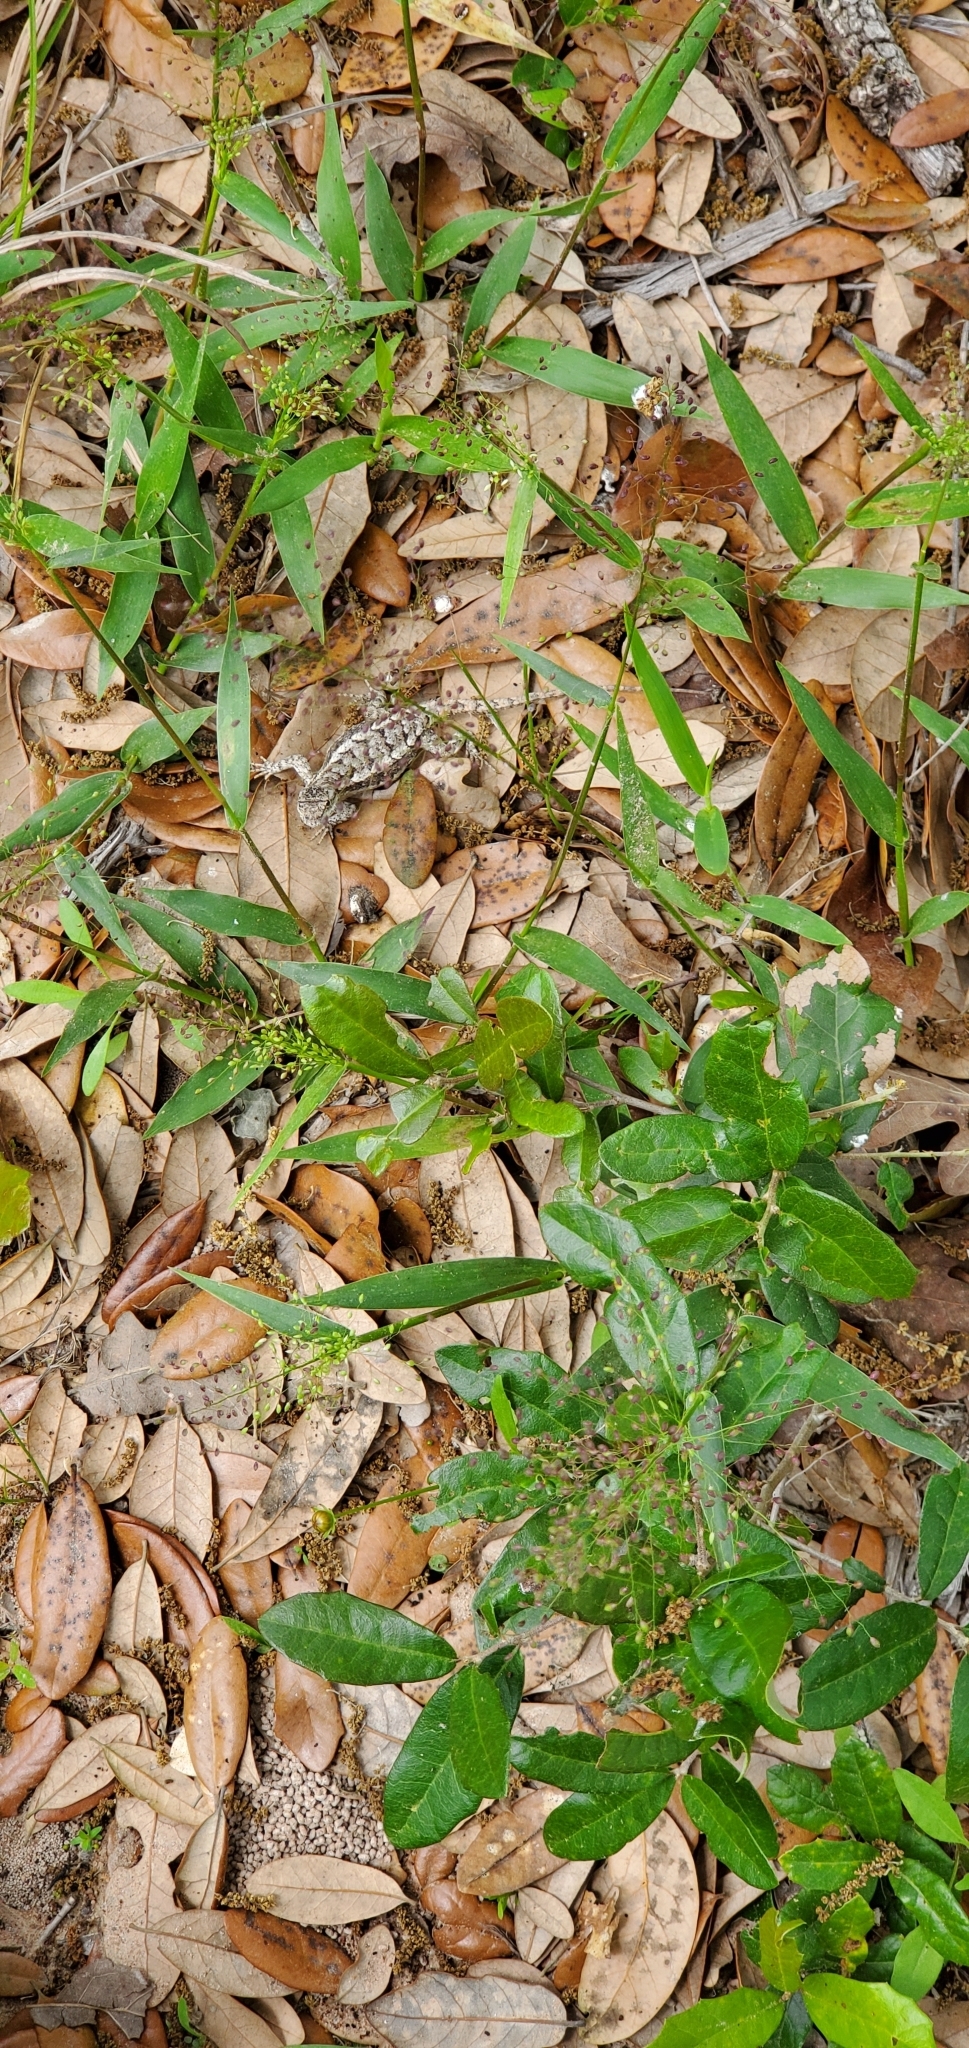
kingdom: Animalia
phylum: Chordata
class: Squamata
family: Phrynosomatidae
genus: Sceloporus
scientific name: Sceloporus olivaceus
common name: Texas spiny lizard
